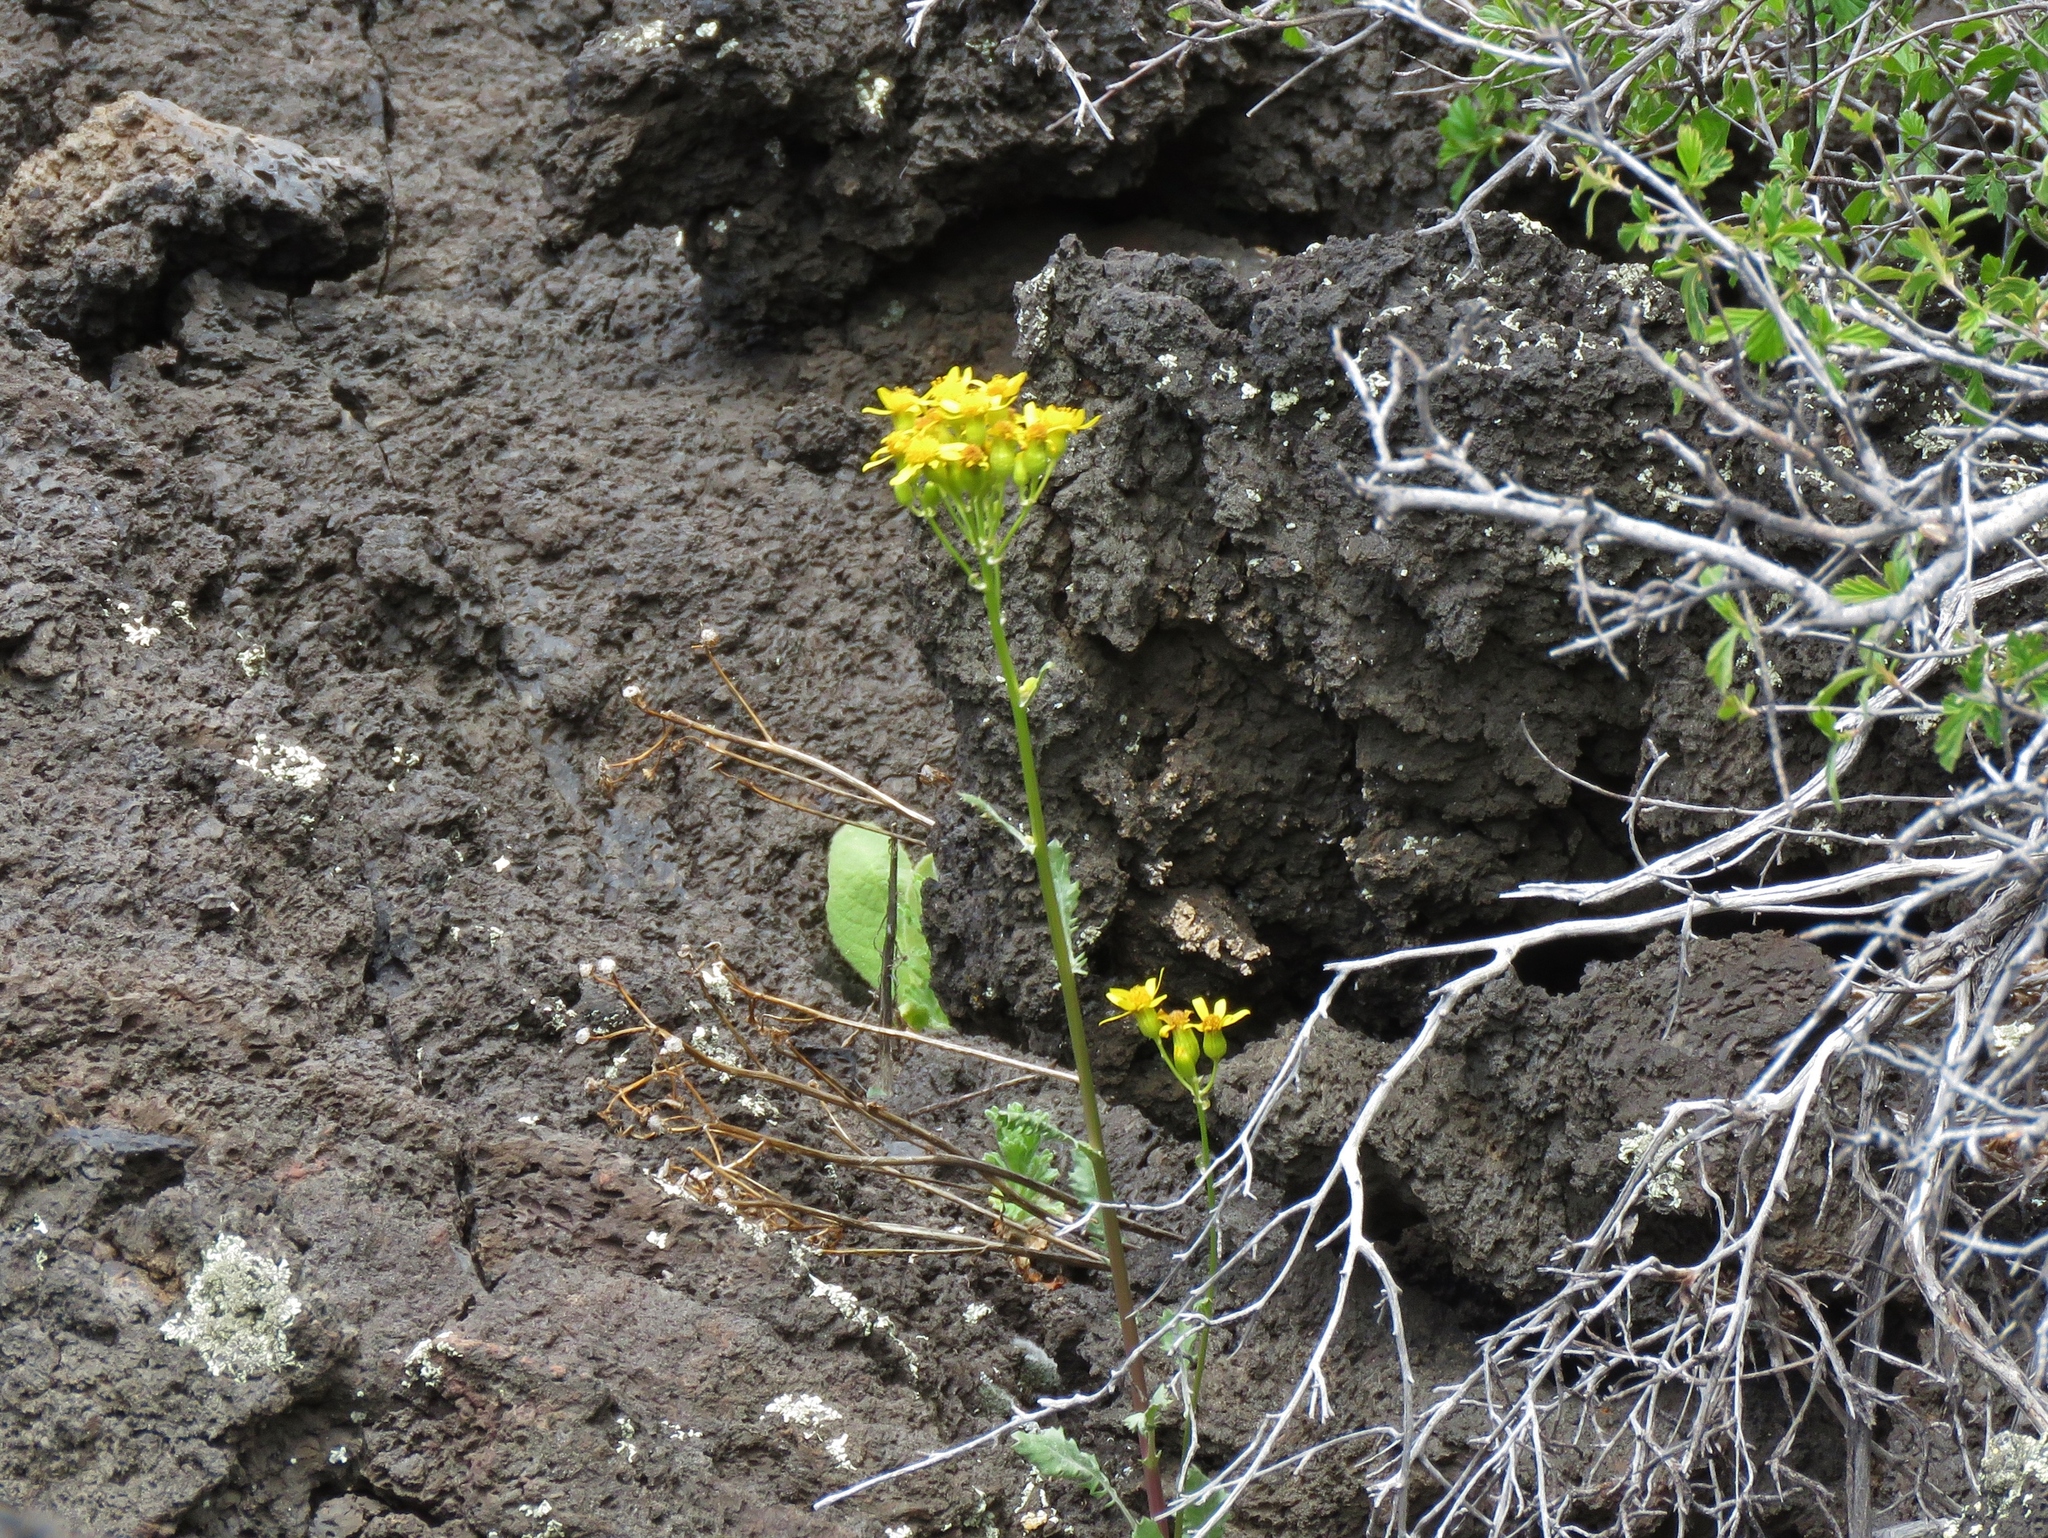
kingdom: Plantae
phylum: Tracheophyta
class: Magnoliopsida
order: Asterales
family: Asteraceae
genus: Packera
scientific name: Packera quercetorum
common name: Oak creek ragwort
